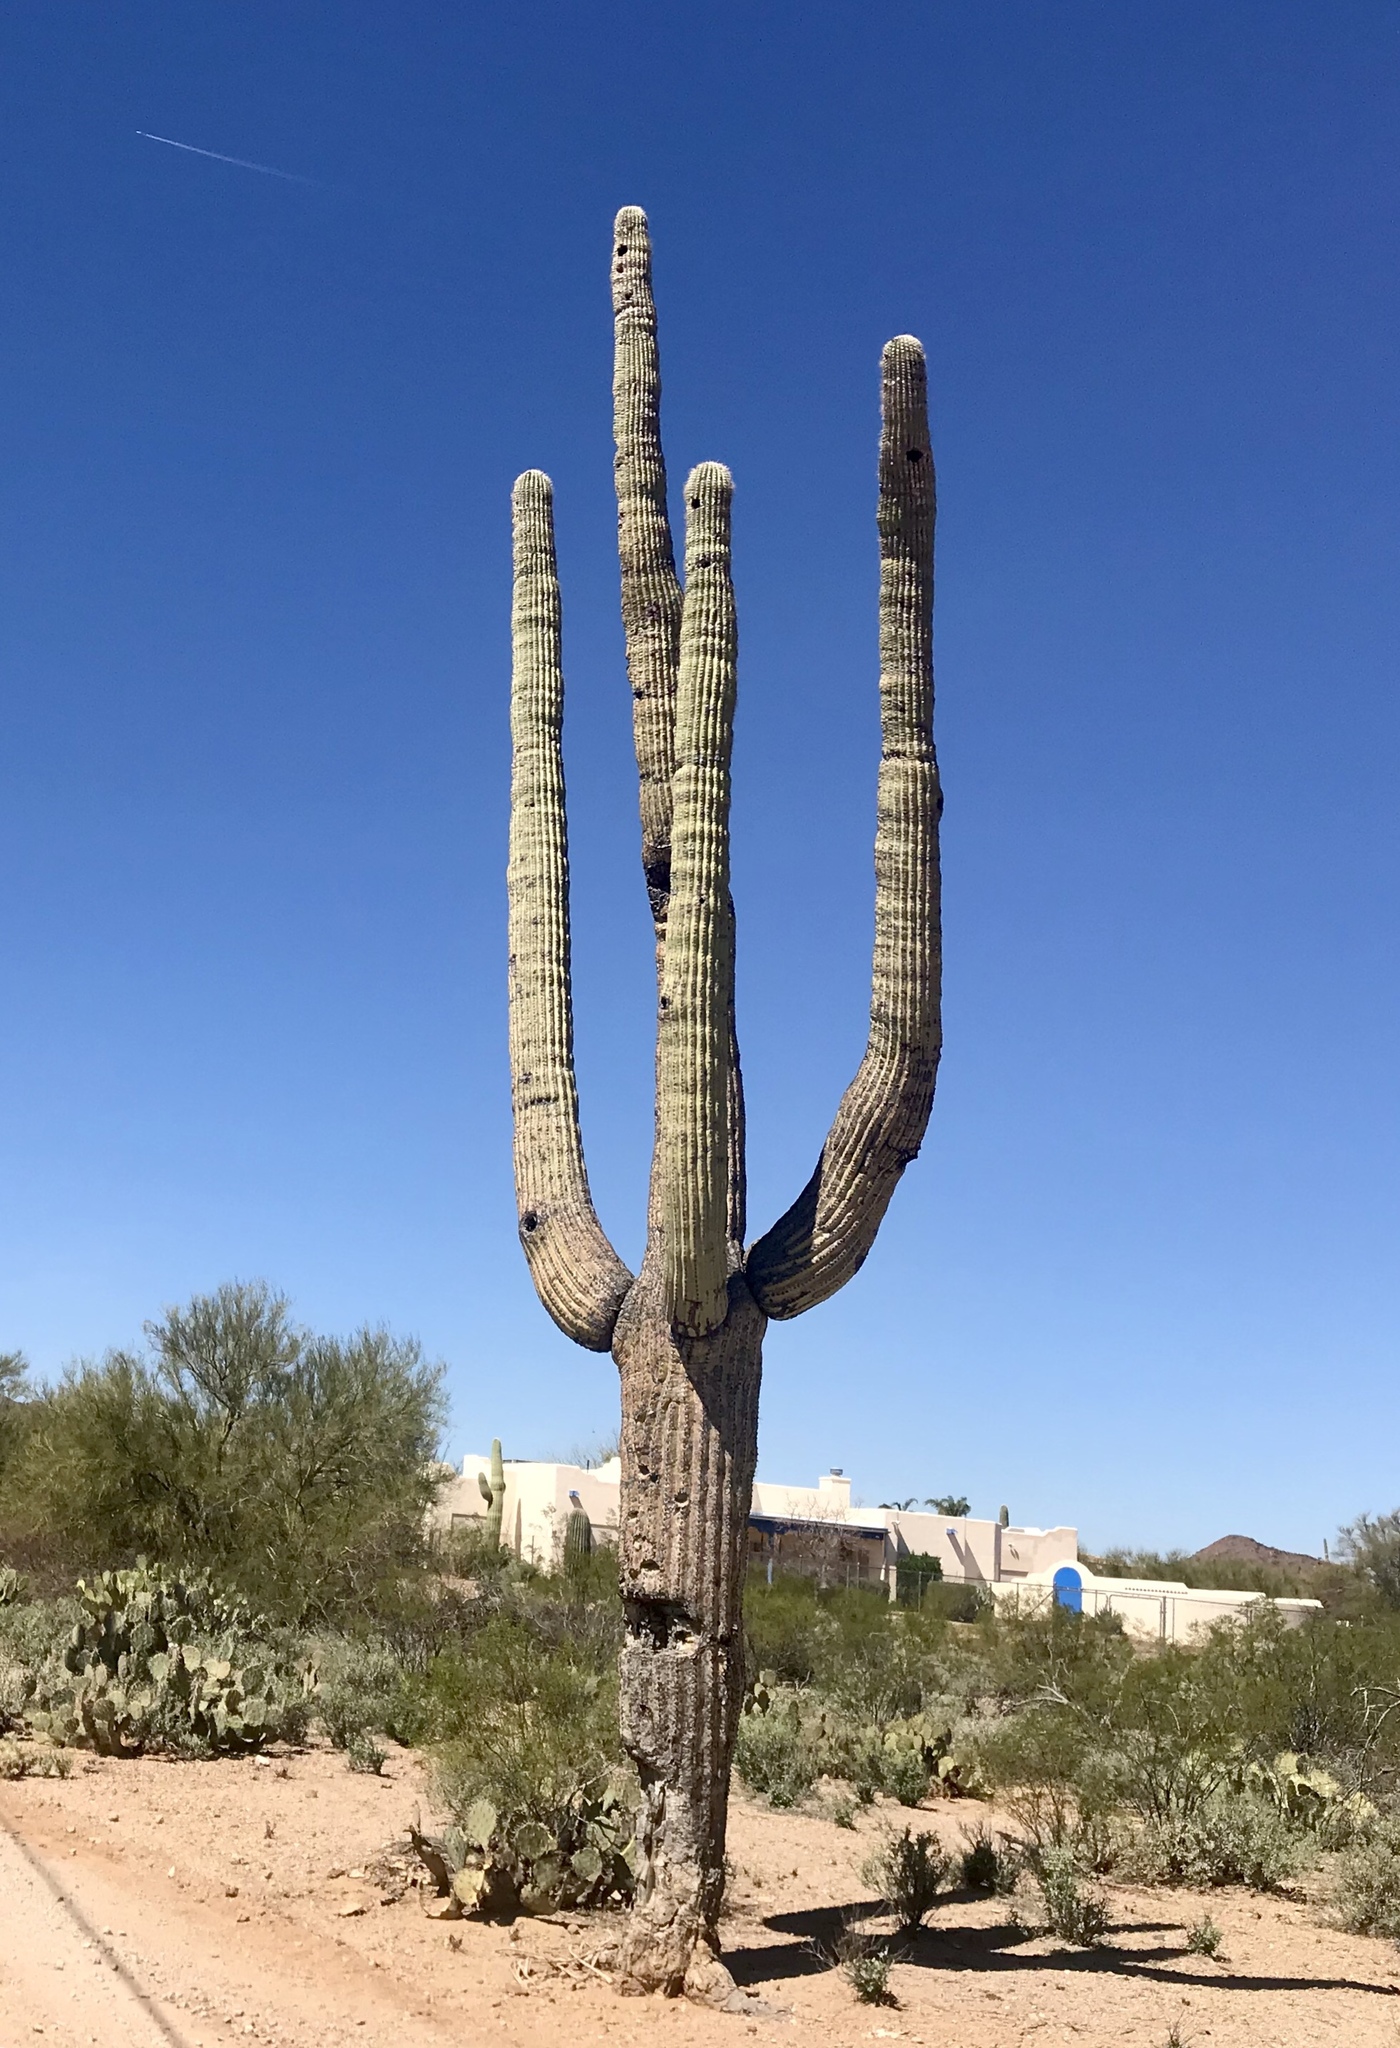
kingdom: Plantae
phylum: Tracheophyta
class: Magnoliopsida
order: Caryophyllales
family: Cactaceae
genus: Carnegiea
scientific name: Carnegiea gigantea
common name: Saguaro
